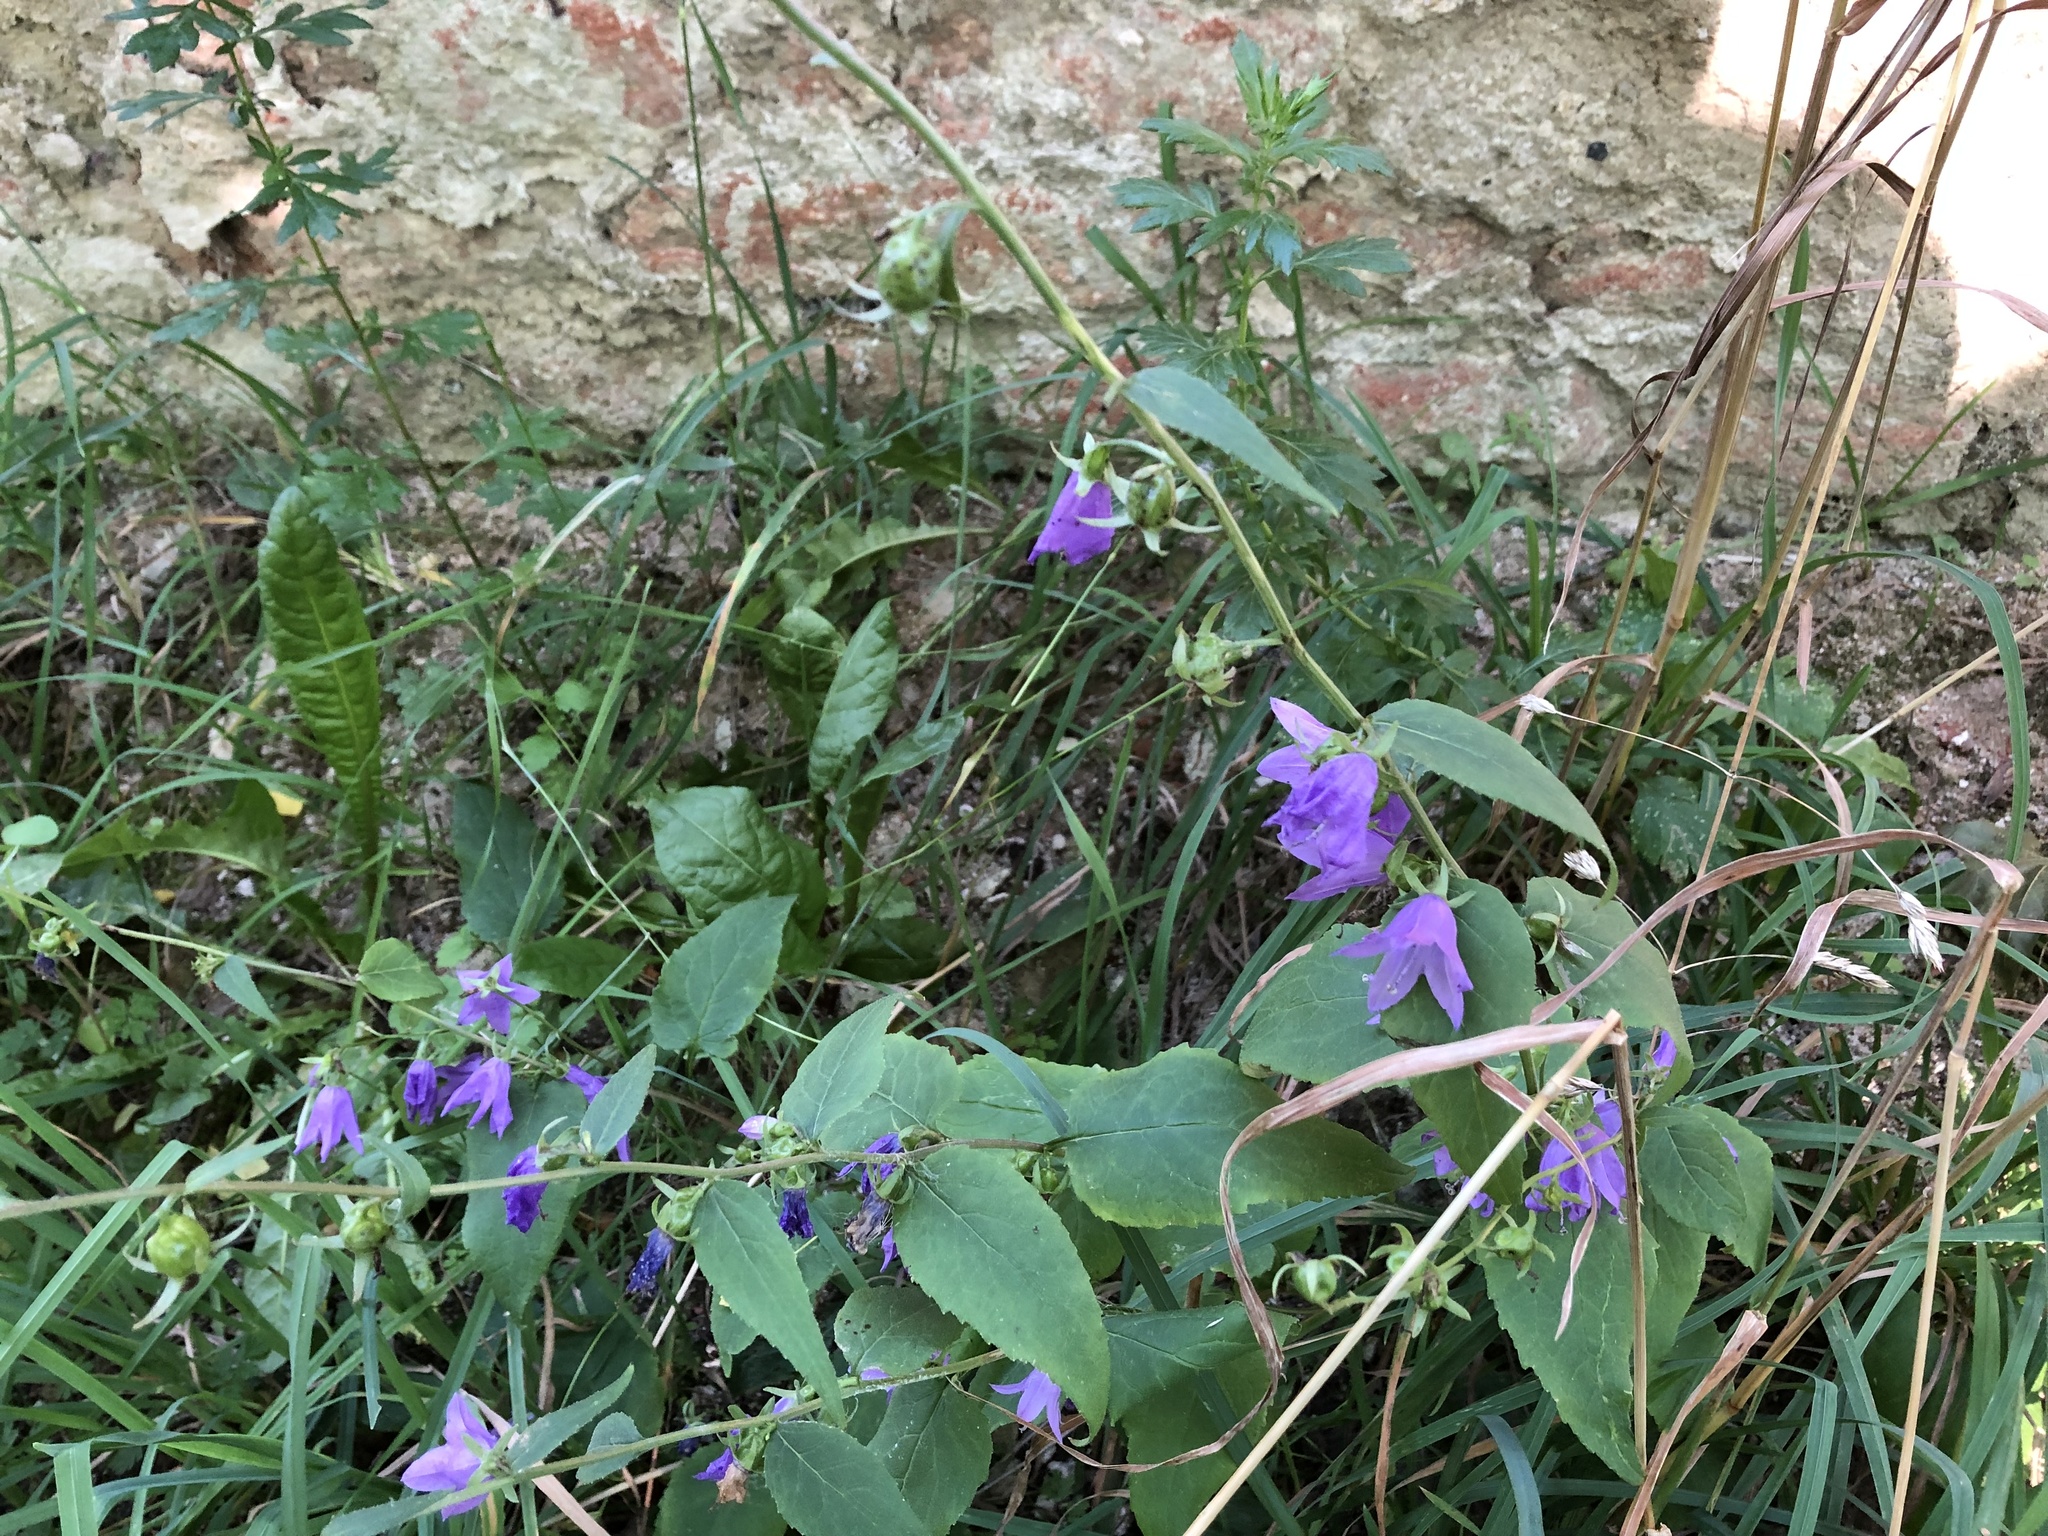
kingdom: Plantae
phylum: Tracheophyta
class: Magnoliopsida
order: Asterales
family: Campanulaceae
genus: Campanula
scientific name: Campanula rapunculoides
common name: Creeping bellflower
